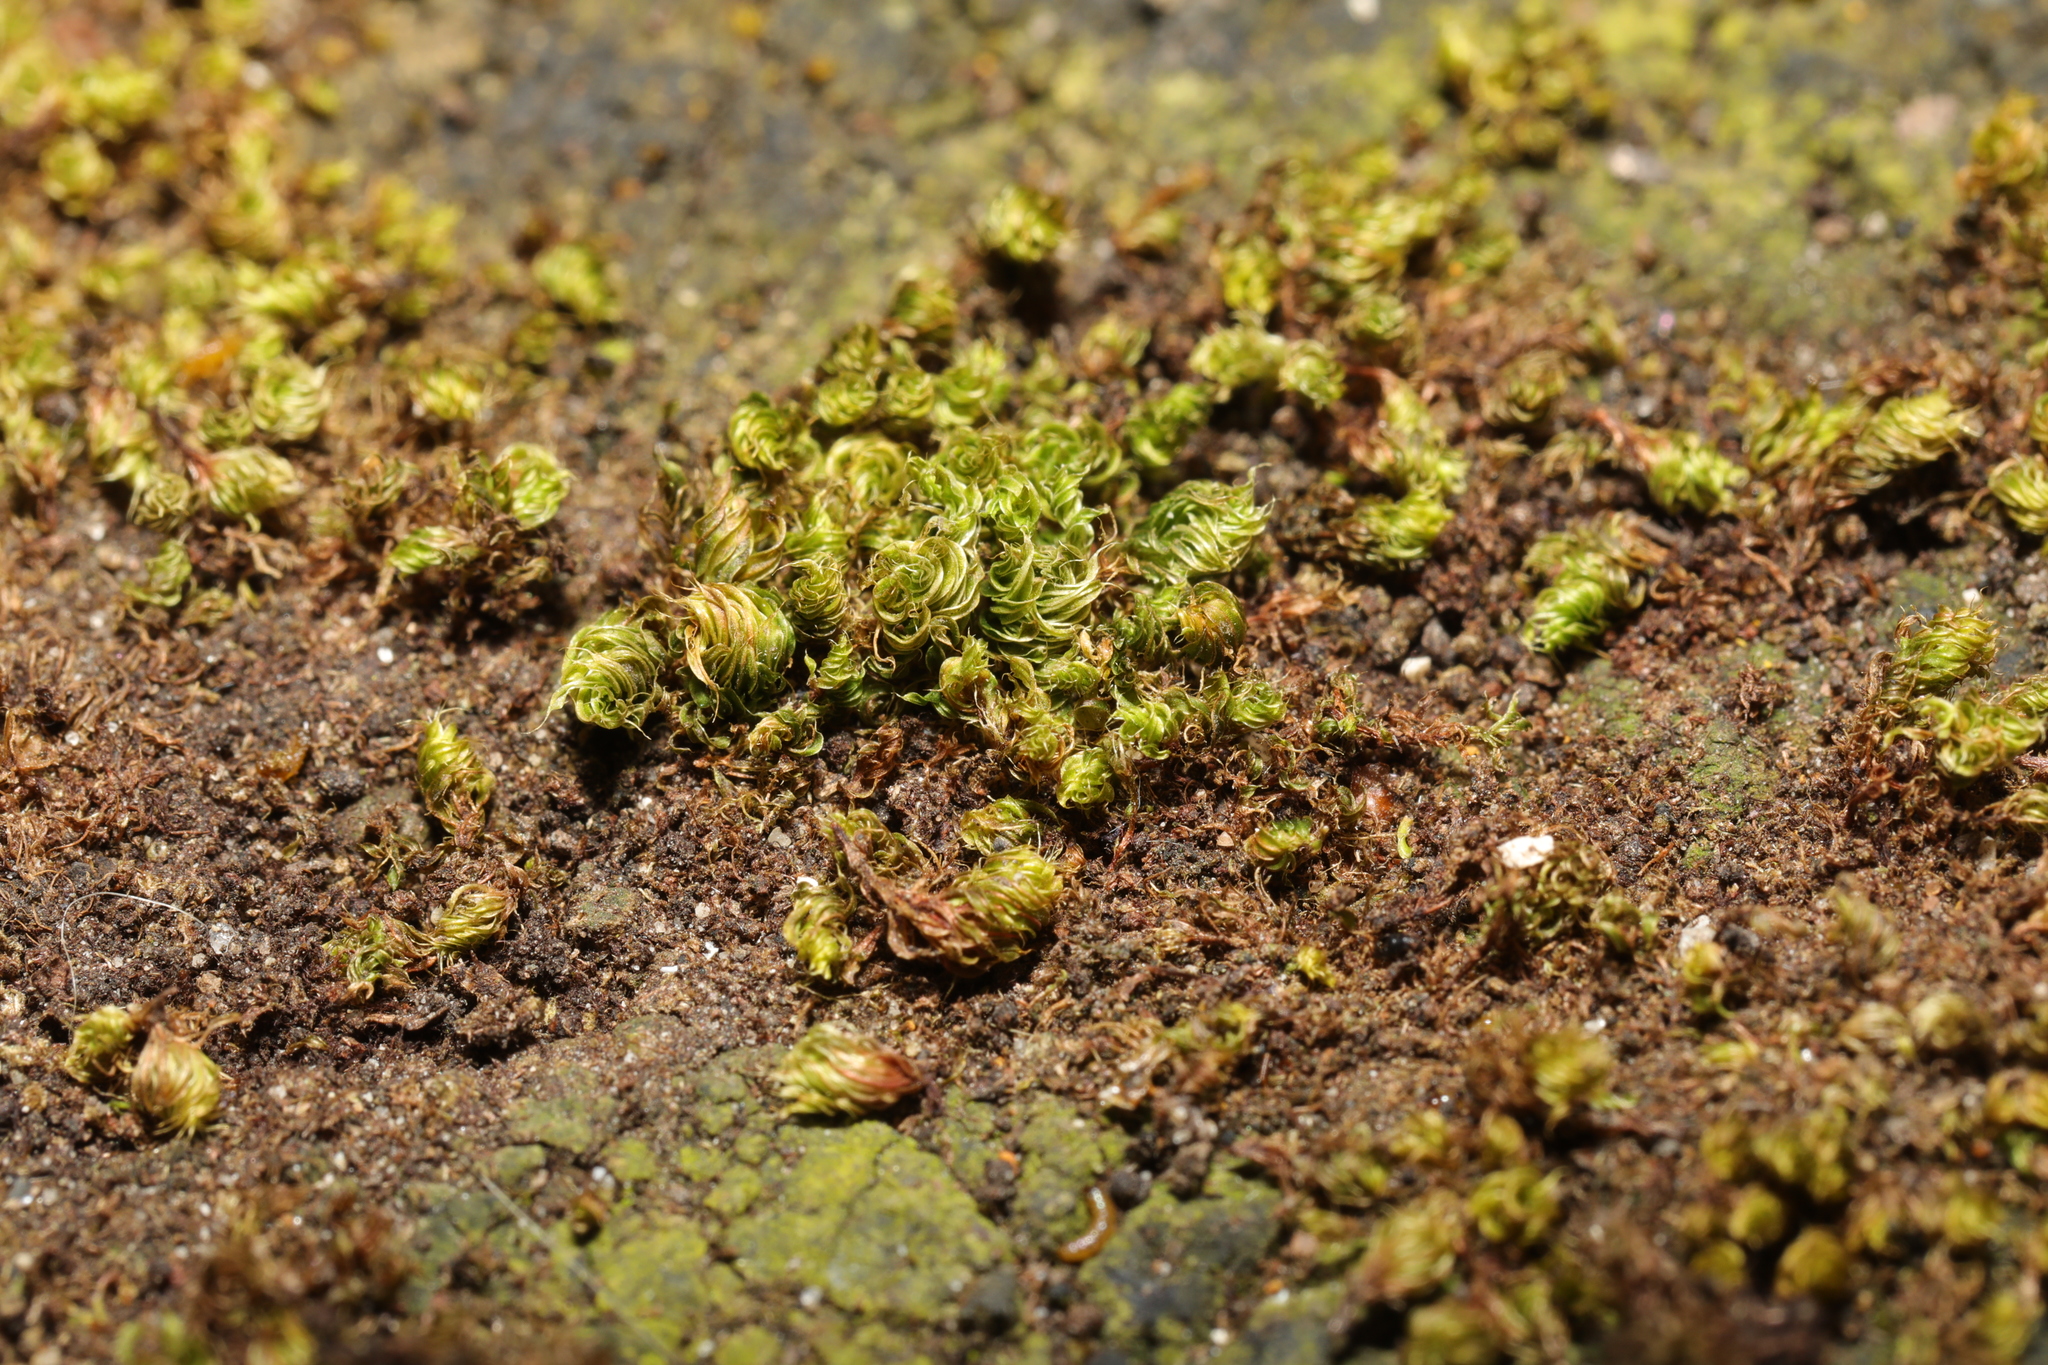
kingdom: Plantae
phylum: Bryophyta
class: Bryopsida
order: Bryales
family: Bryaceae
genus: Rosulabryum
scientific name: Rosulabryum capillare
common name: Capillary thread-moss
